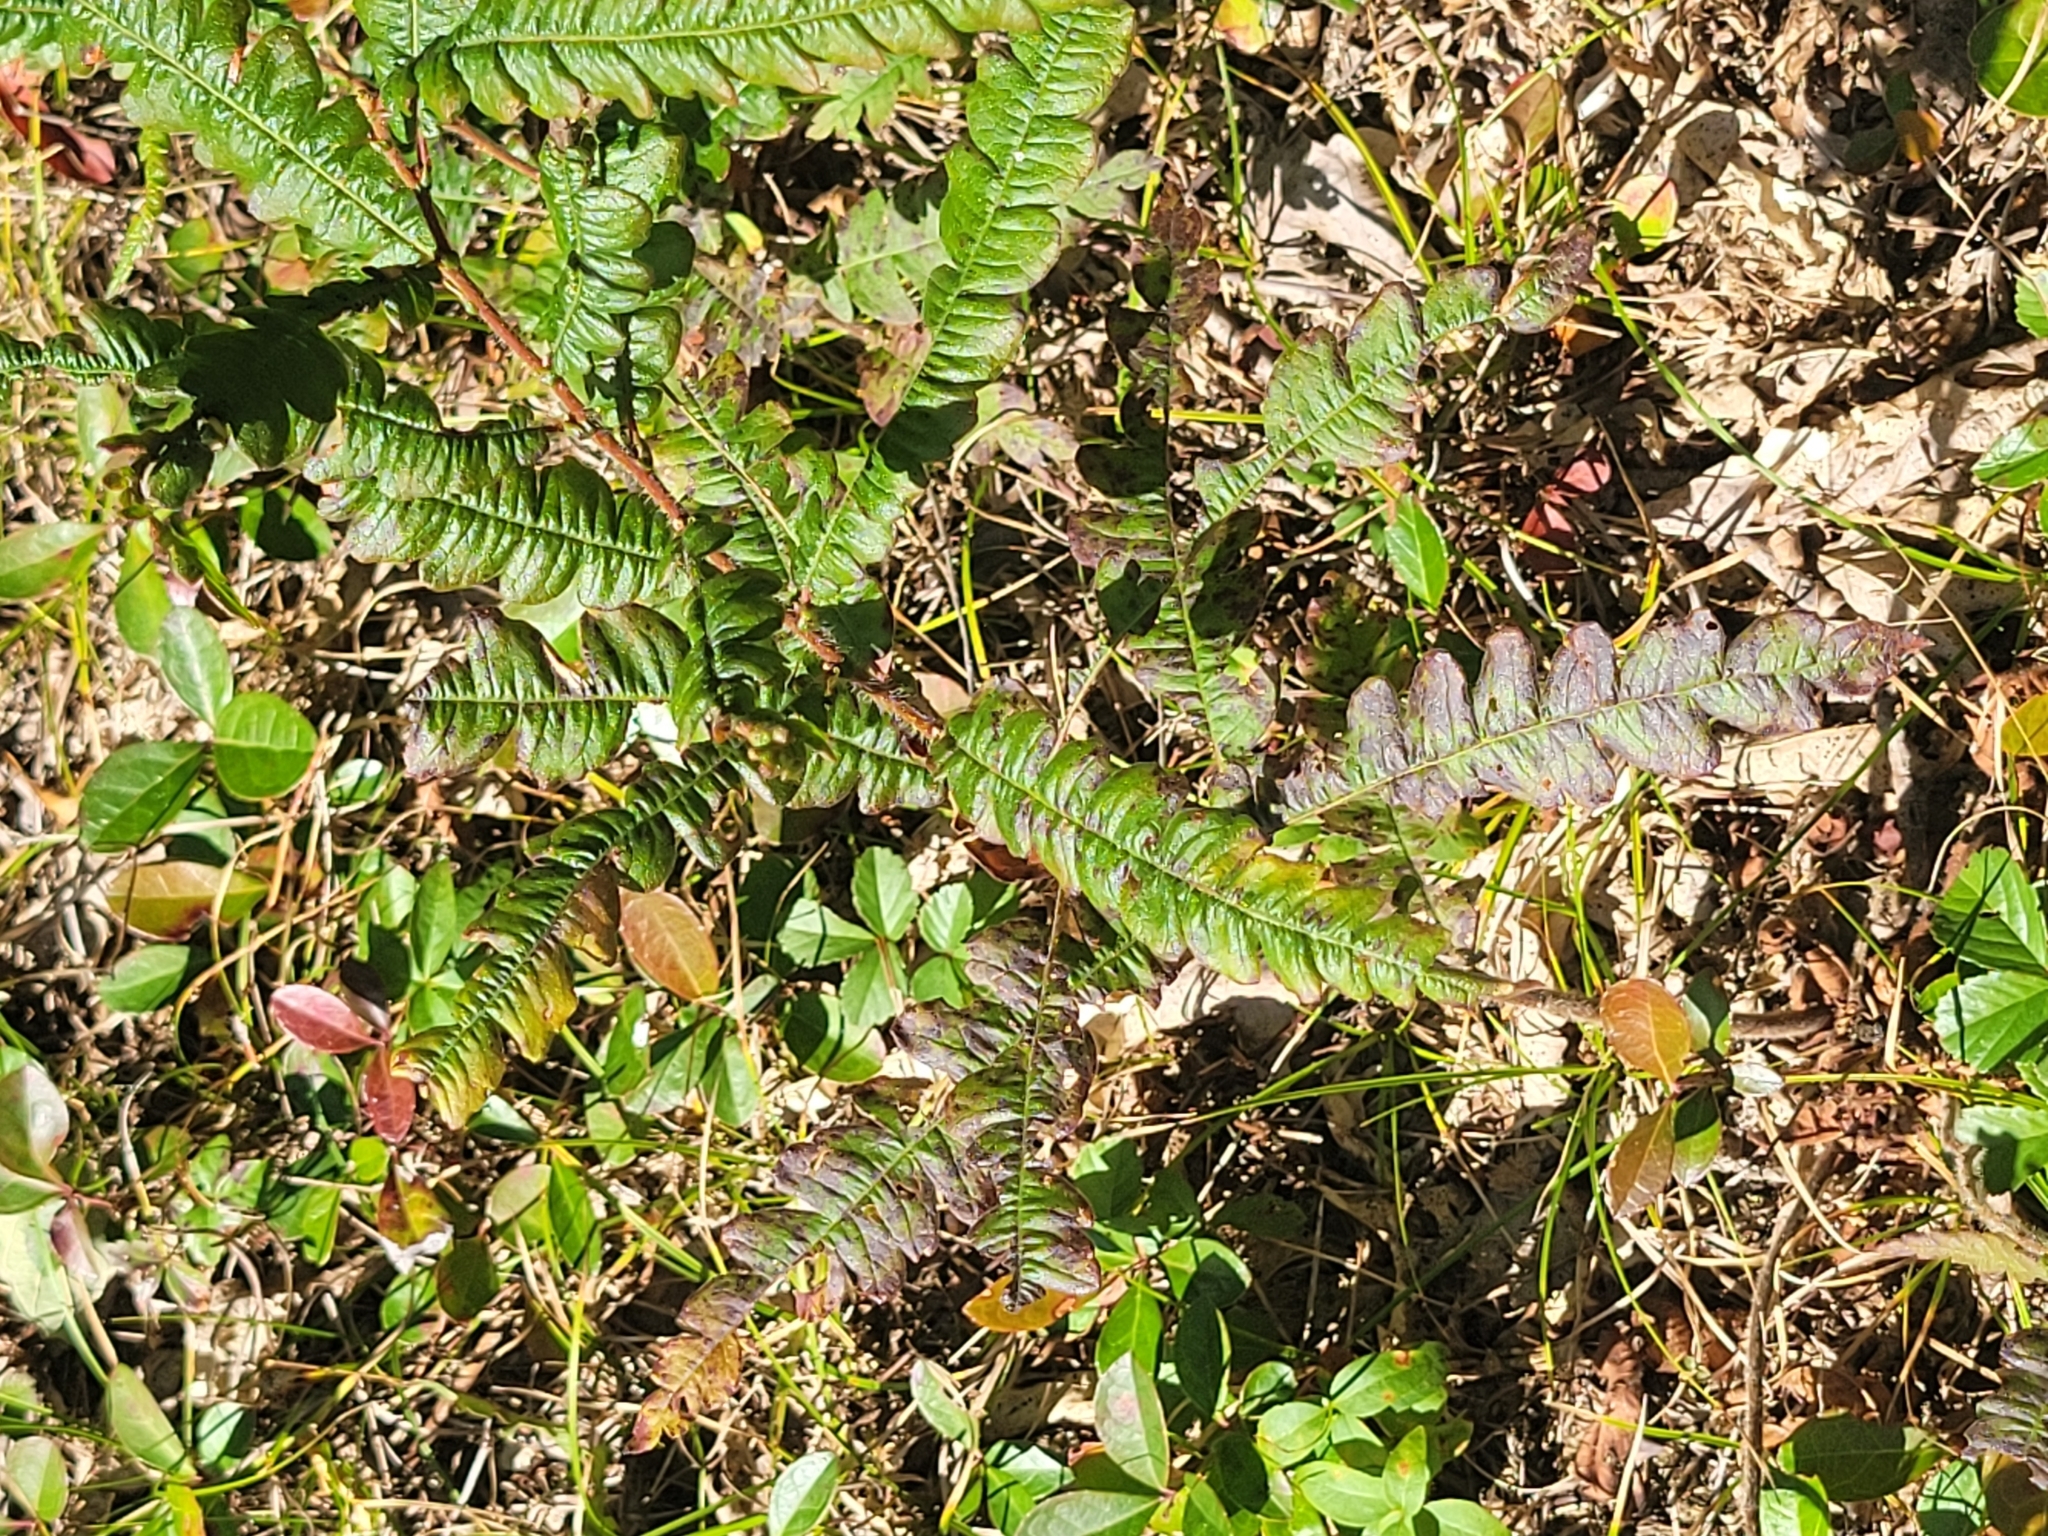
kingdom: Plantae
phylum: Tracheophyta
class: Magnoliopsida
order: Fagales
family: Myricaceae
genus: Comptonia
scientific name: Comptonia peregrina
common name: Sweet-fern
